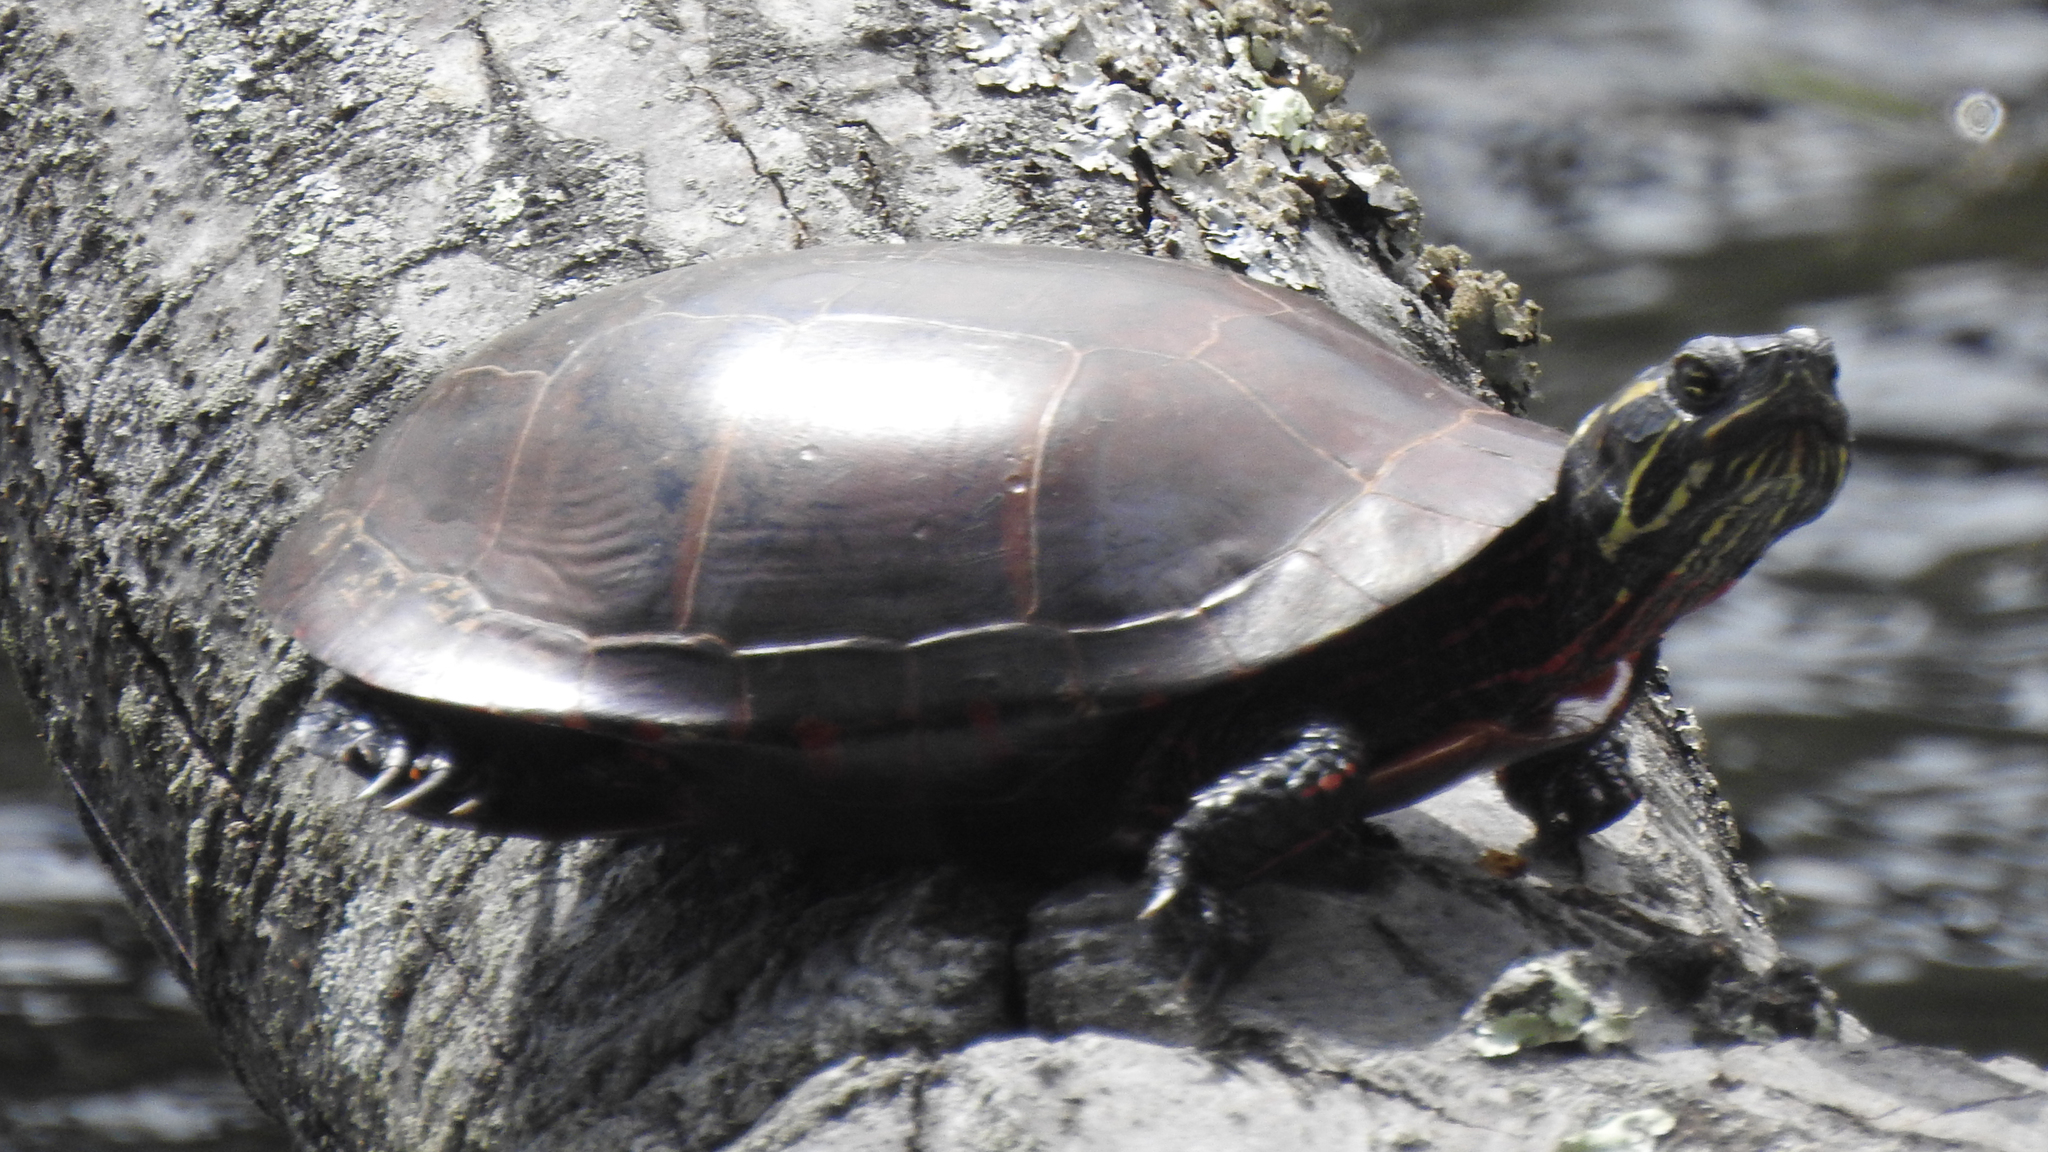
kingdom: Animalia
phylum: Chordata
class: Testudines
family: Emydidae
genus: Chrysemys
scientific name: Chrysemys picta
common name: Painted turtle
